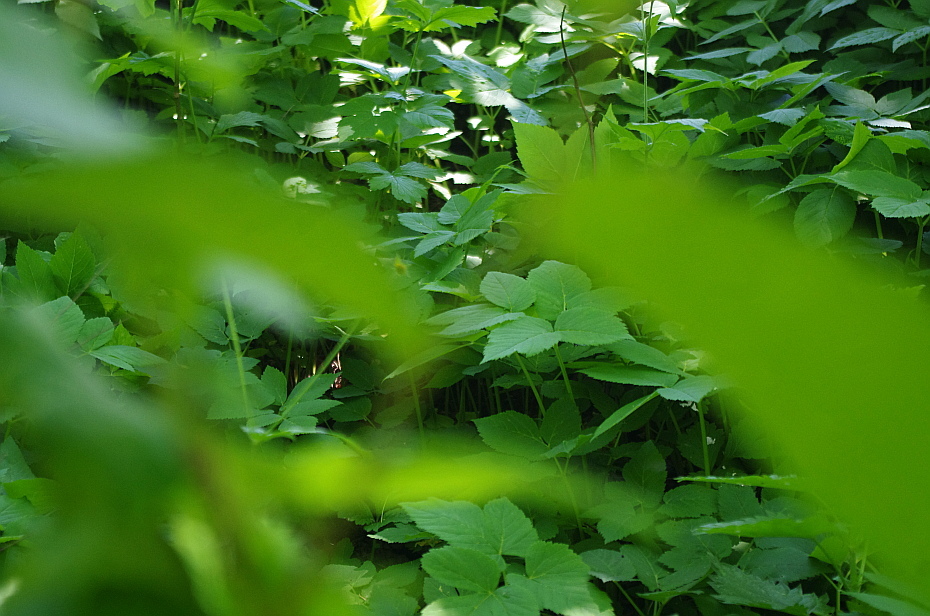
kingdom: Plantae
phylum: Tracheophyta
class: Magnoliopsida
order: Apiales
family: Apiaceae
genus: Aegopodium
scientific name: Aegopodium podagraria
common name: Ground-elder
